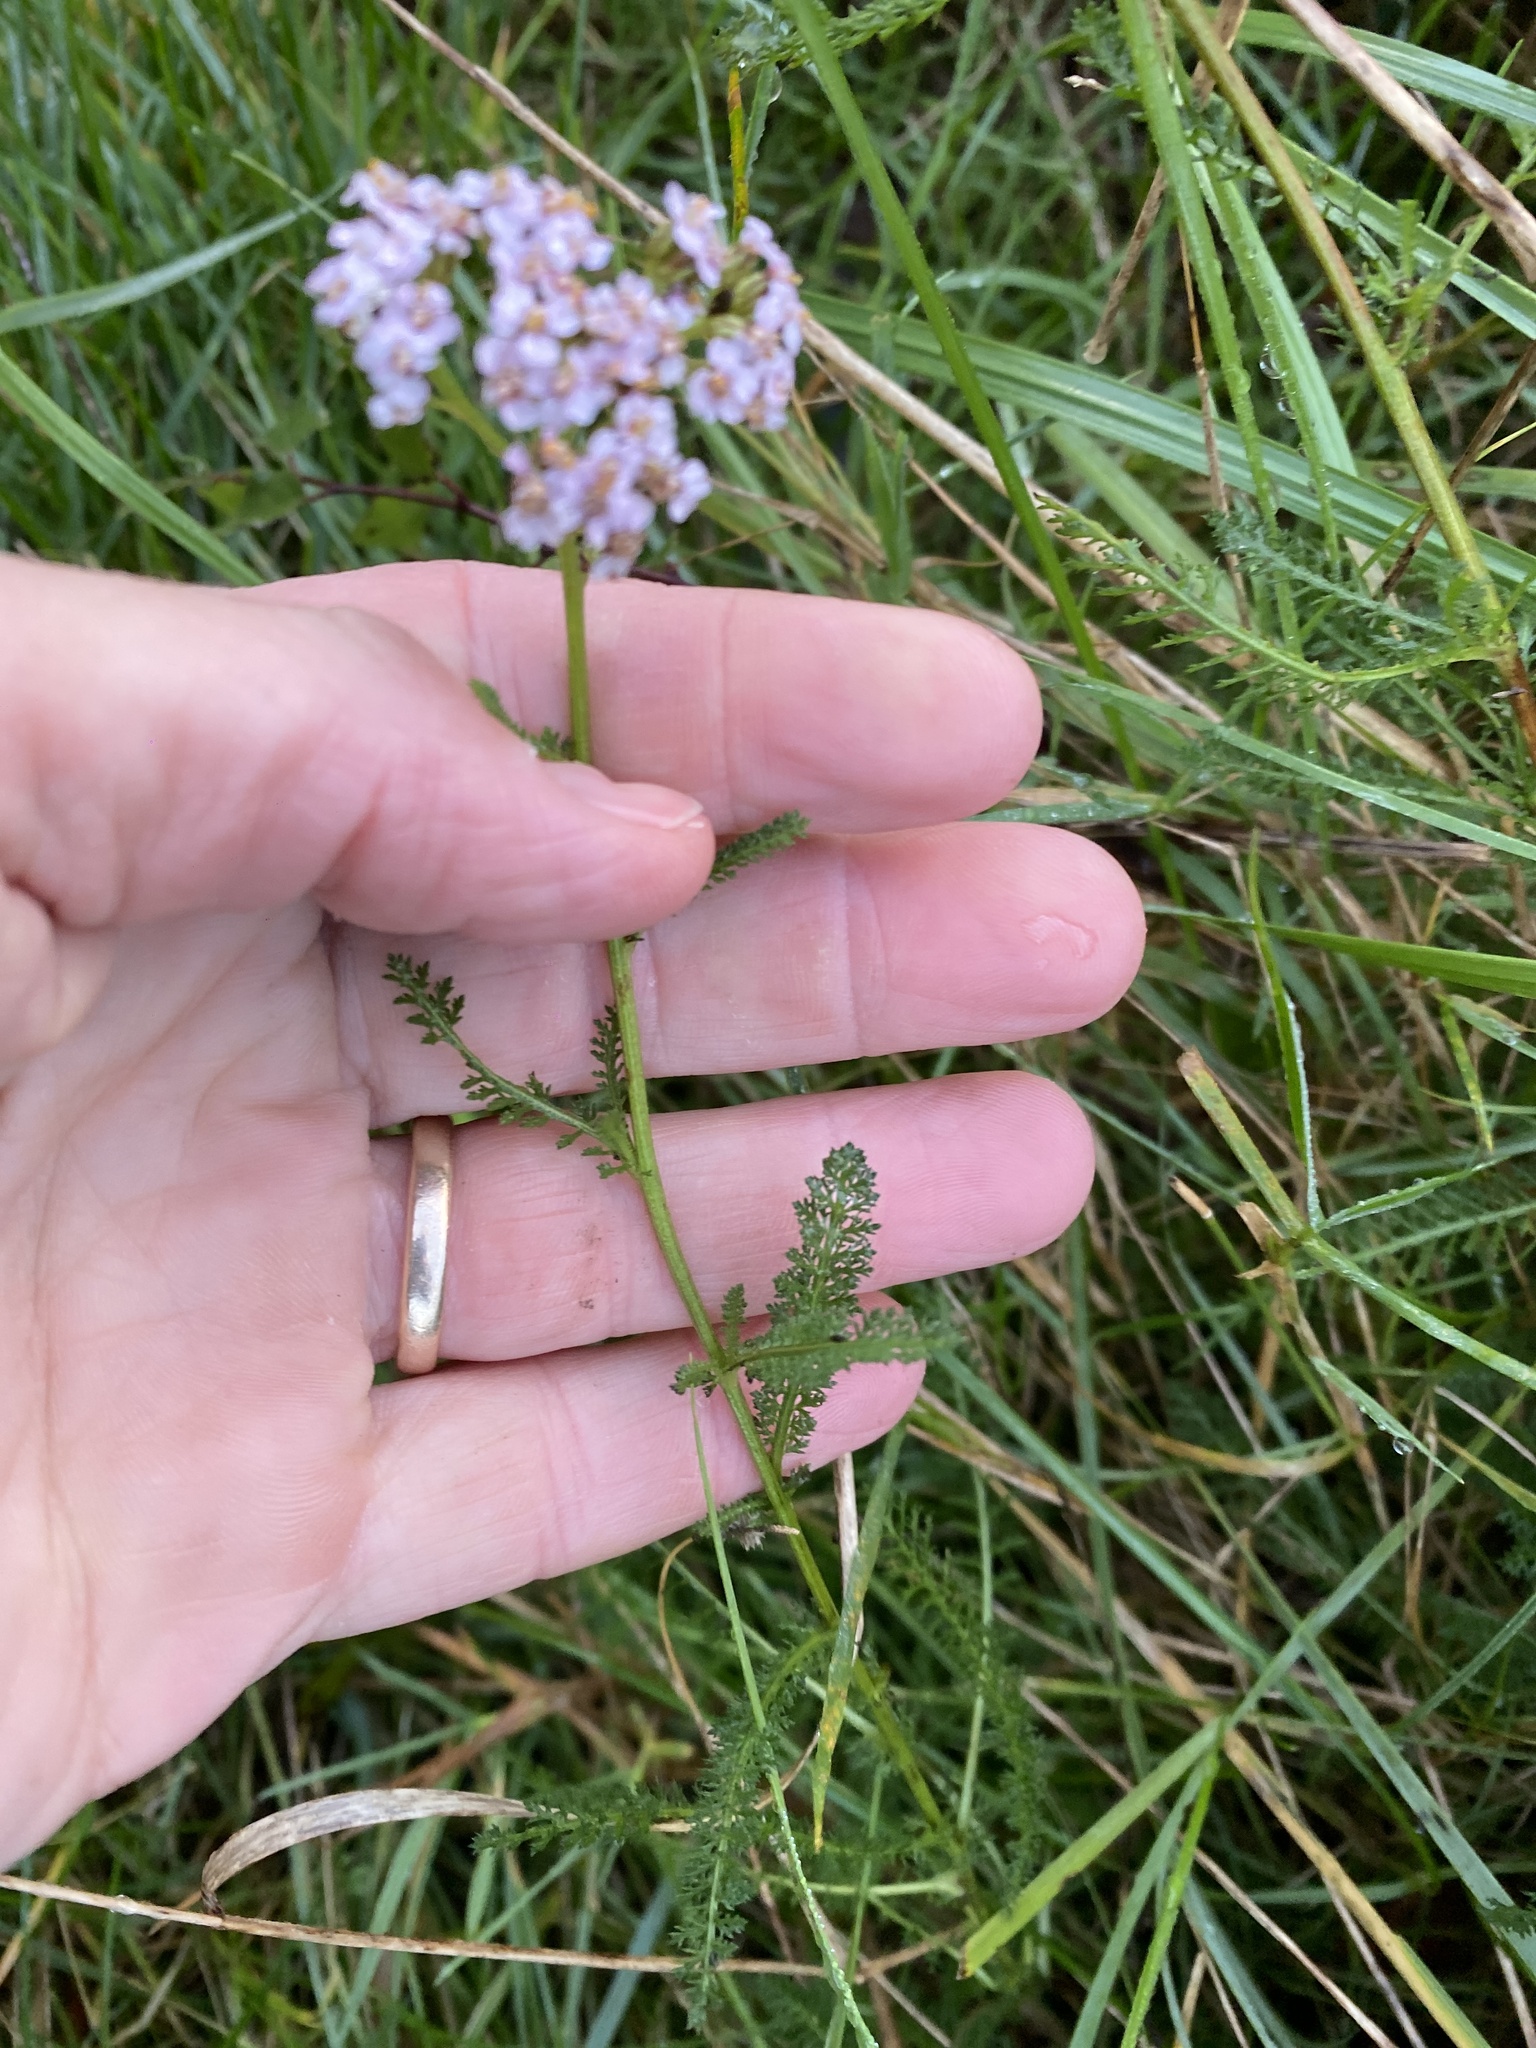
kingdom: Plantae
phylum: Tracheophyta
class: Magnoliopsida
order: Asterales
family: Asteraceae
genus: Achillea
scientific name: Achillea millefolium
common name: Yarrow
